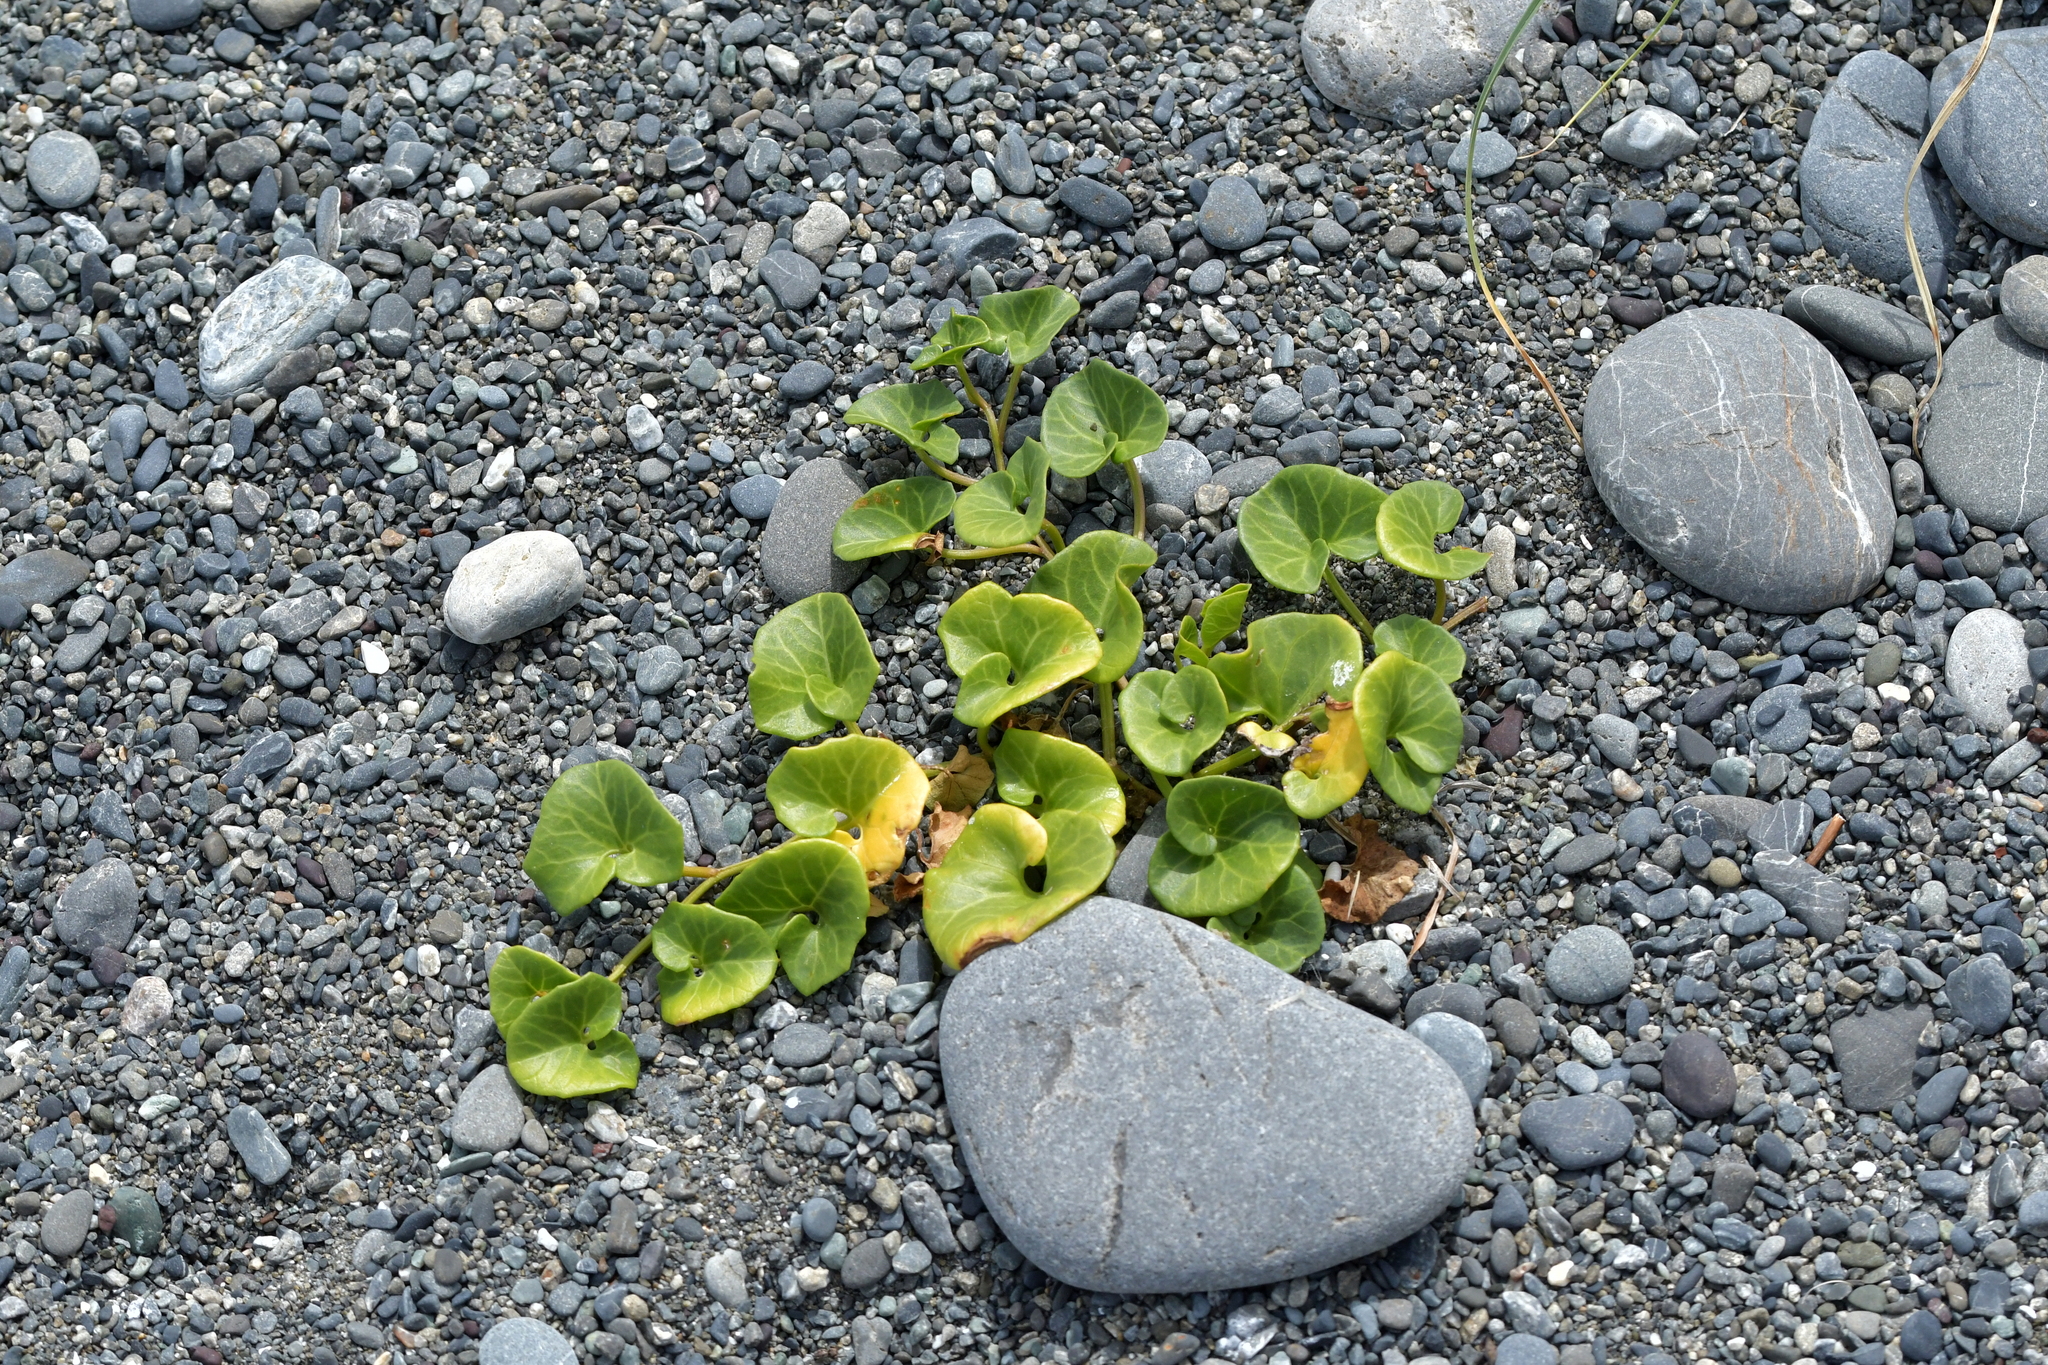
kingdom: Plantae
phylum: Tracheophyta
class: Magnoliopsida
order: Solanales
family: Convolvulaceae
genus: Calystegia
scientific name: Calystegia soldanella
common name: Sea bindweed
